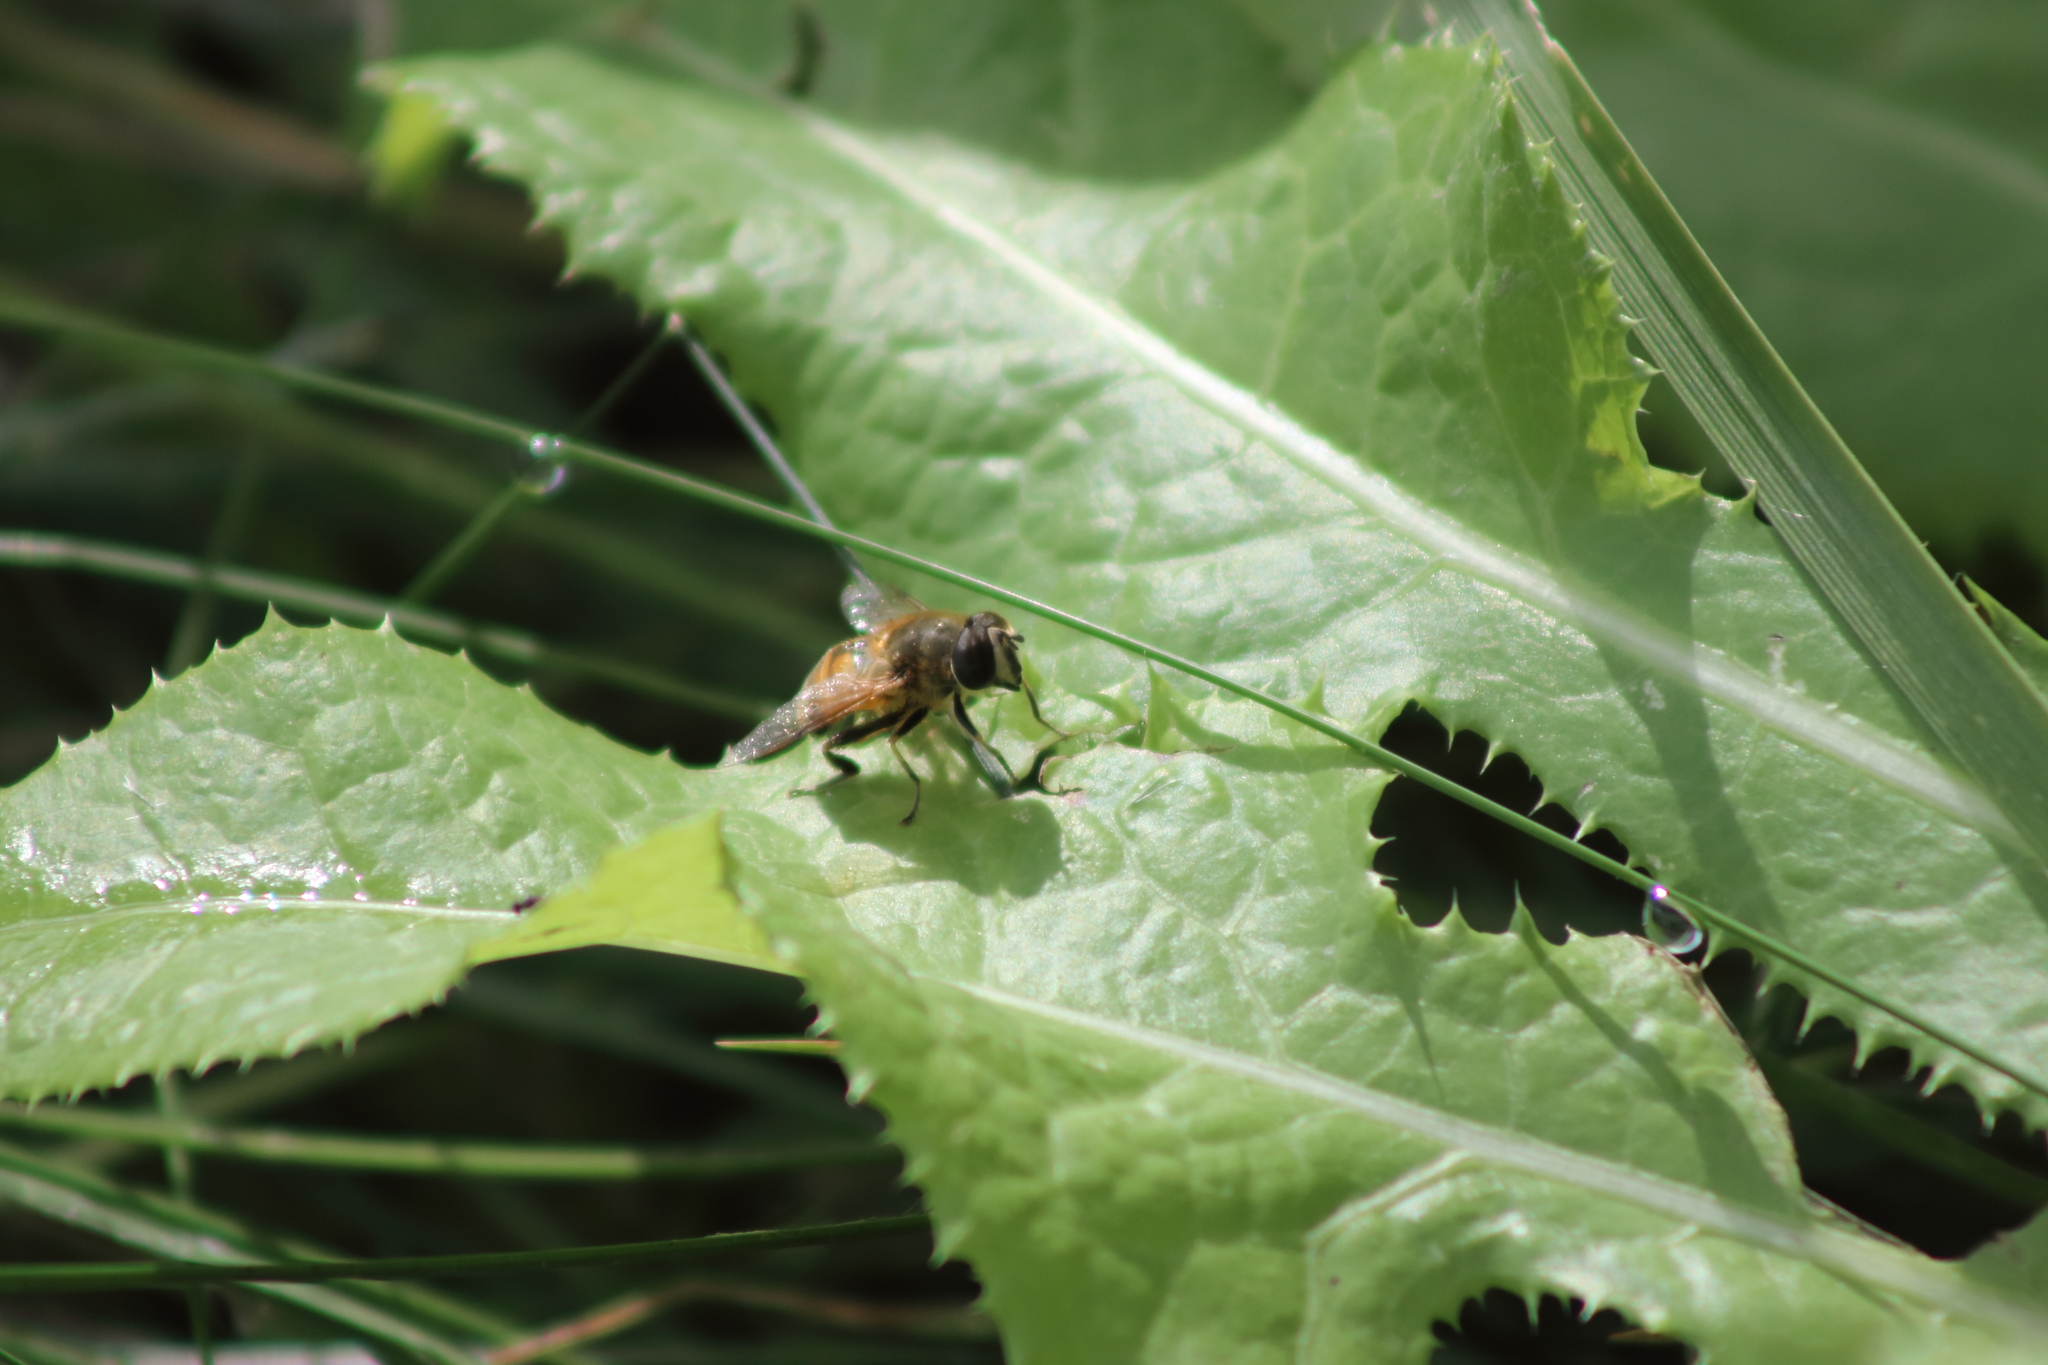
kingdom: Animalia
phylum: Arthropoda
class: Insecta
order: Diptera
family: Syrphidae
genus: Eristalis
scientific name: Eristalis tenax
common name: Drone fly
